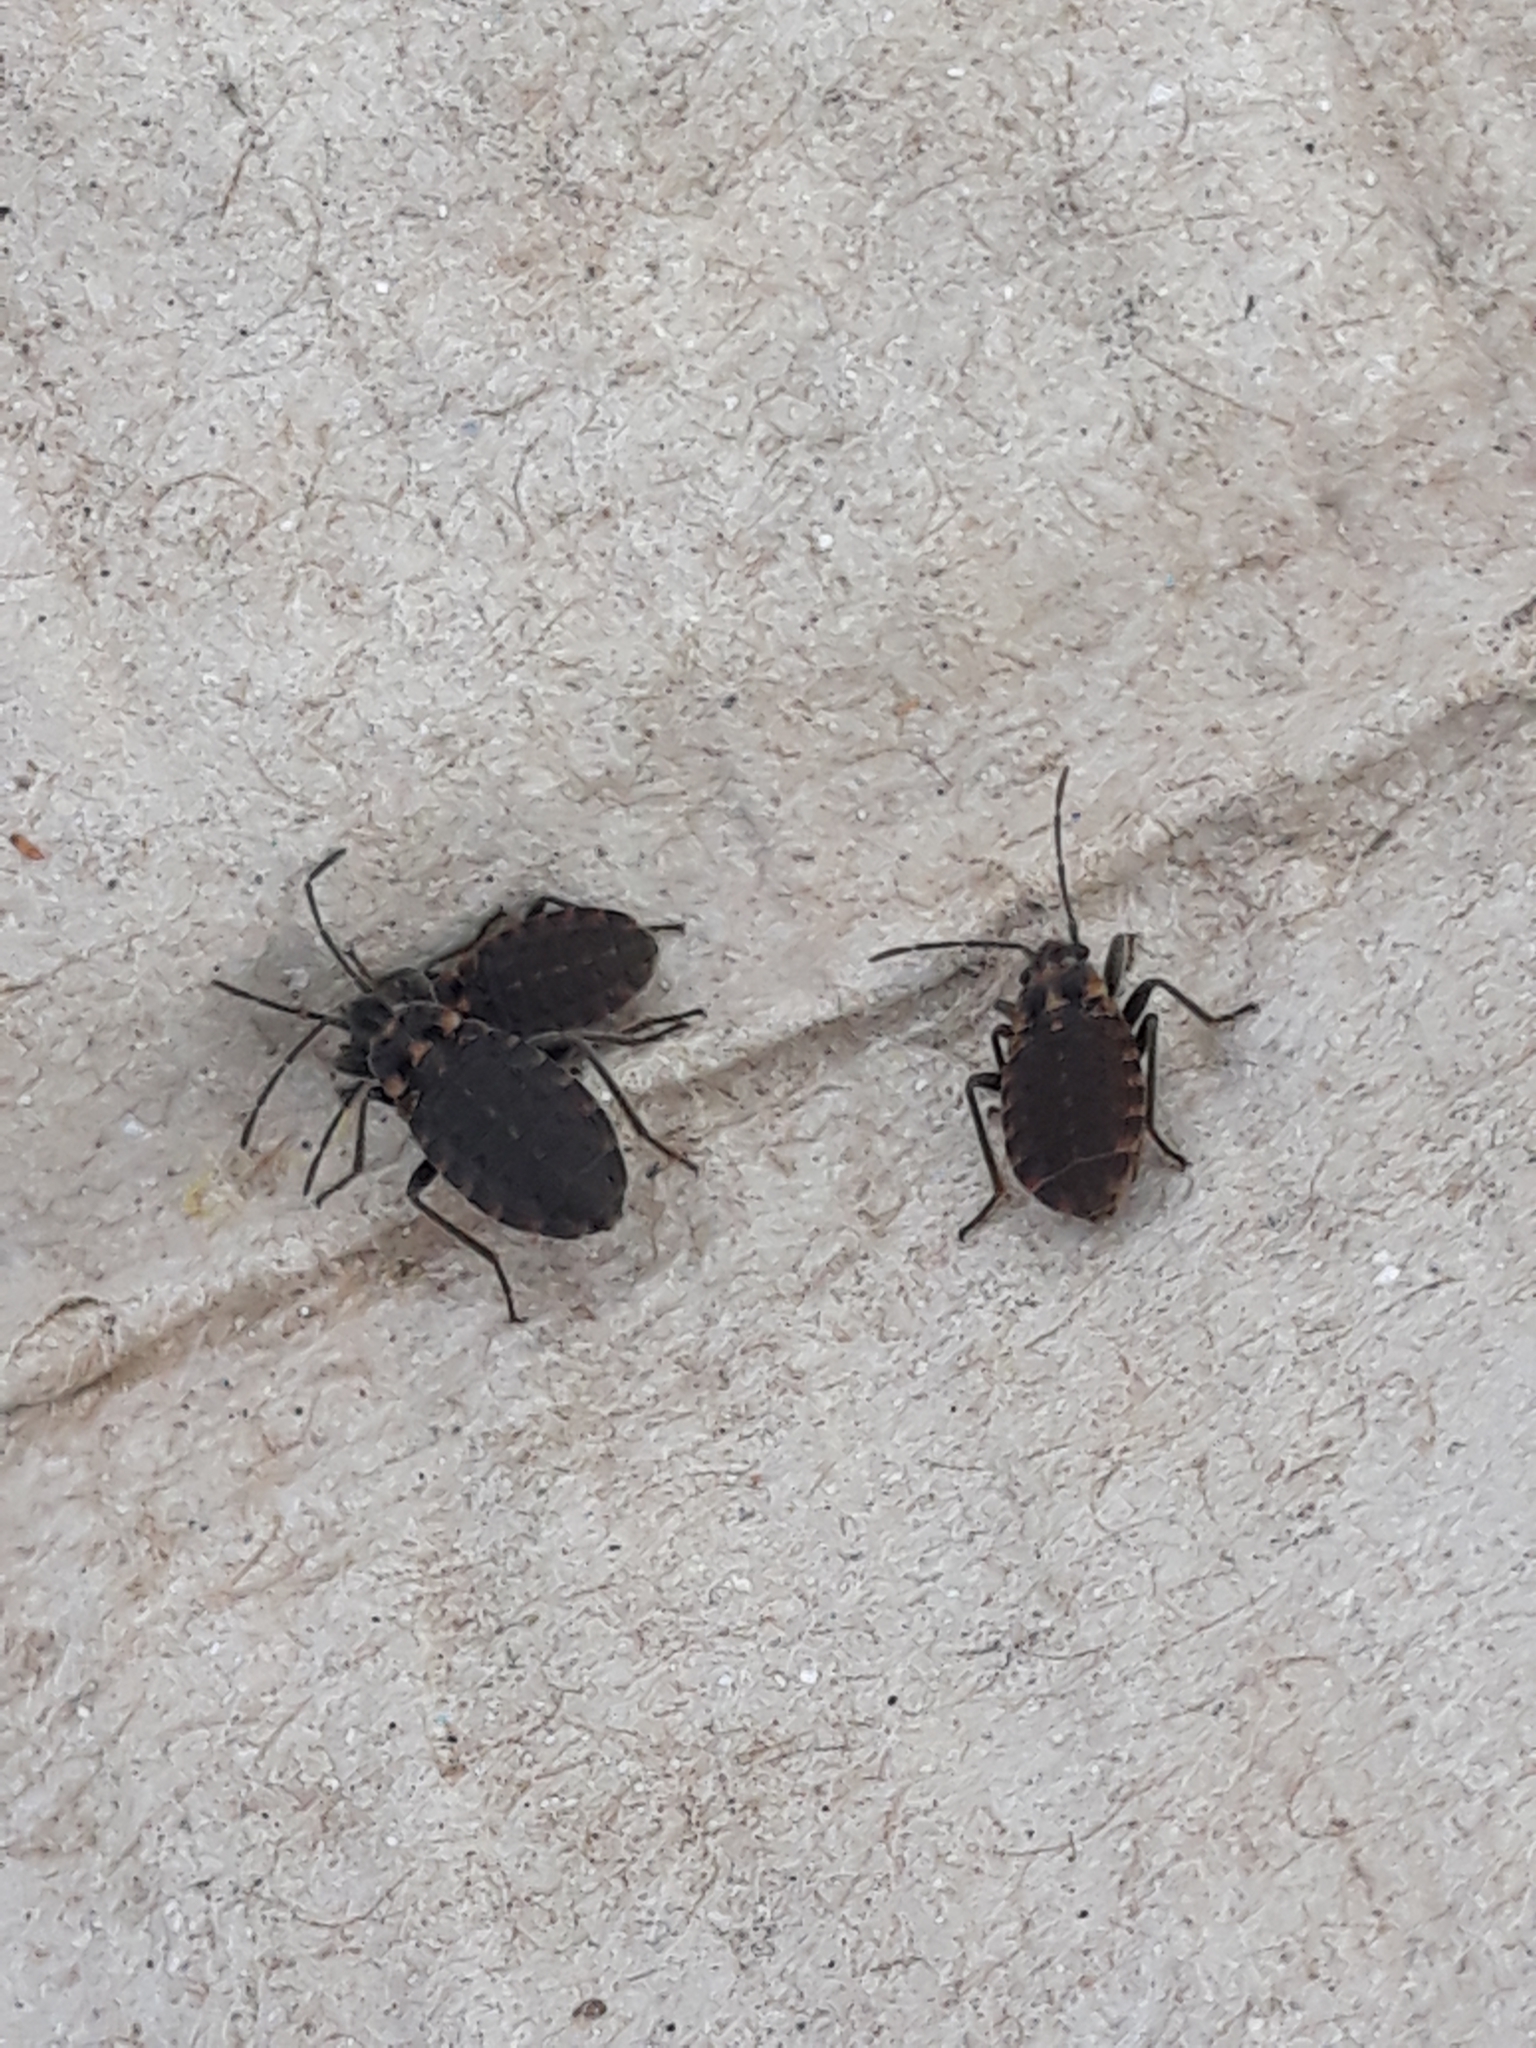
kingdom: Animalia
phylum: Arthropoda
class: Insecta
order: Hemiptera
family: Lygaeidae
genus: Apterola
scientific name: Apterola kunckeli
